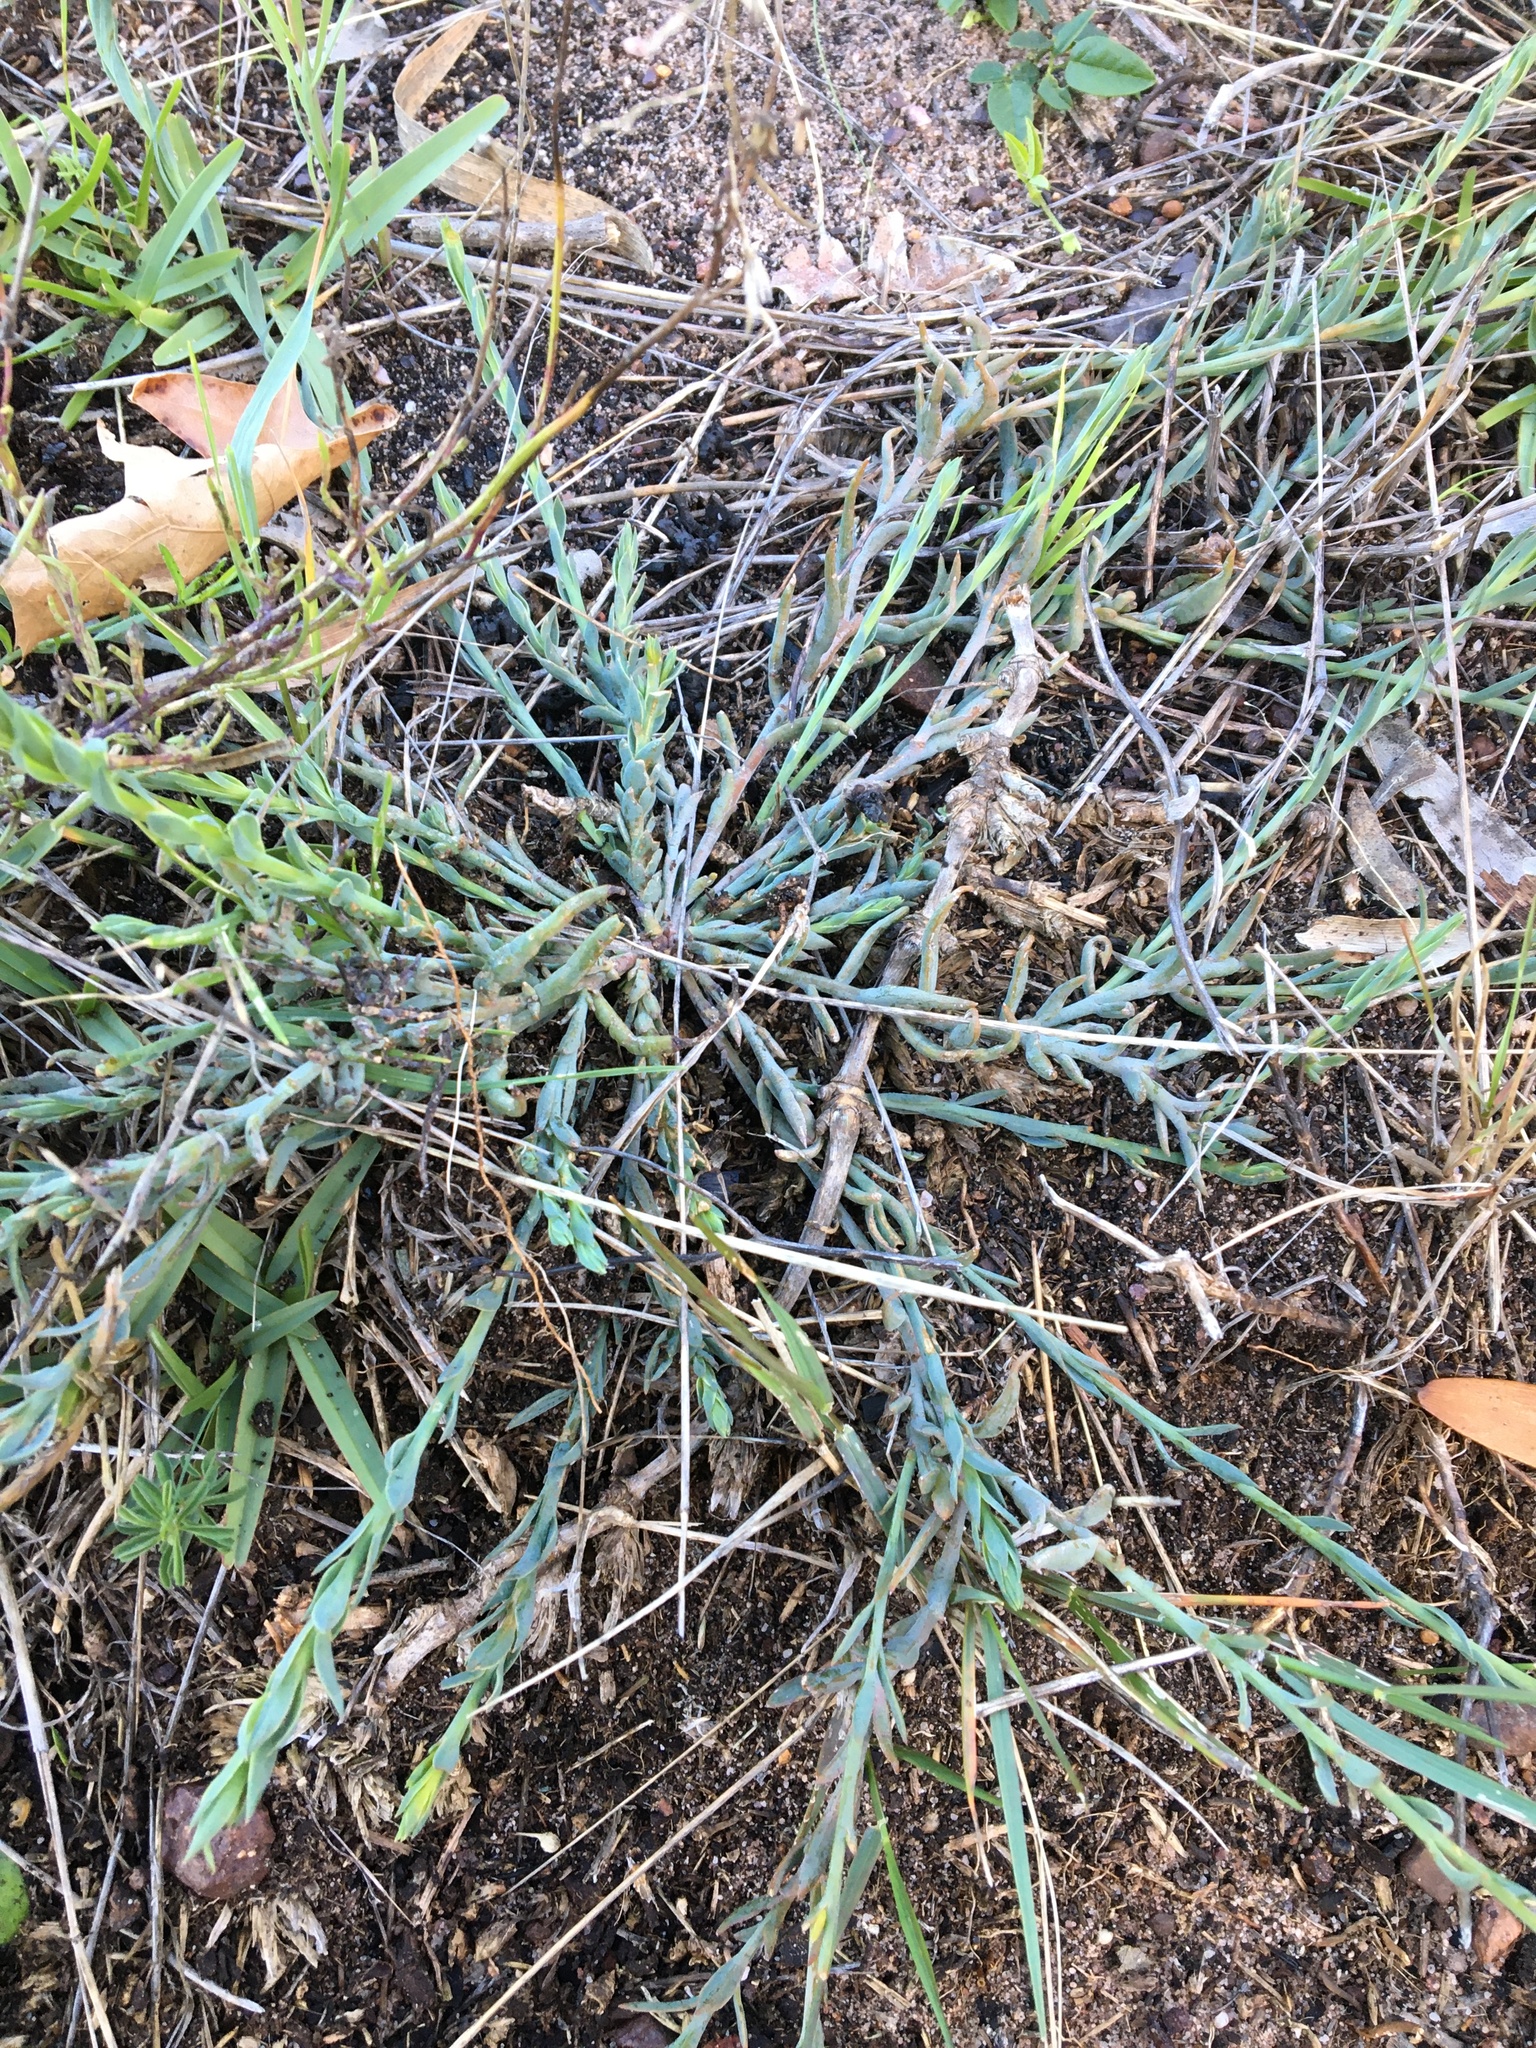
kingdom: Plantae
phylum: Tracheophyta
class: Magnoliopsida
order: Santalales
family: Thesiaceae
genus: Thesium
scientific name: Thesium ecklonianum
